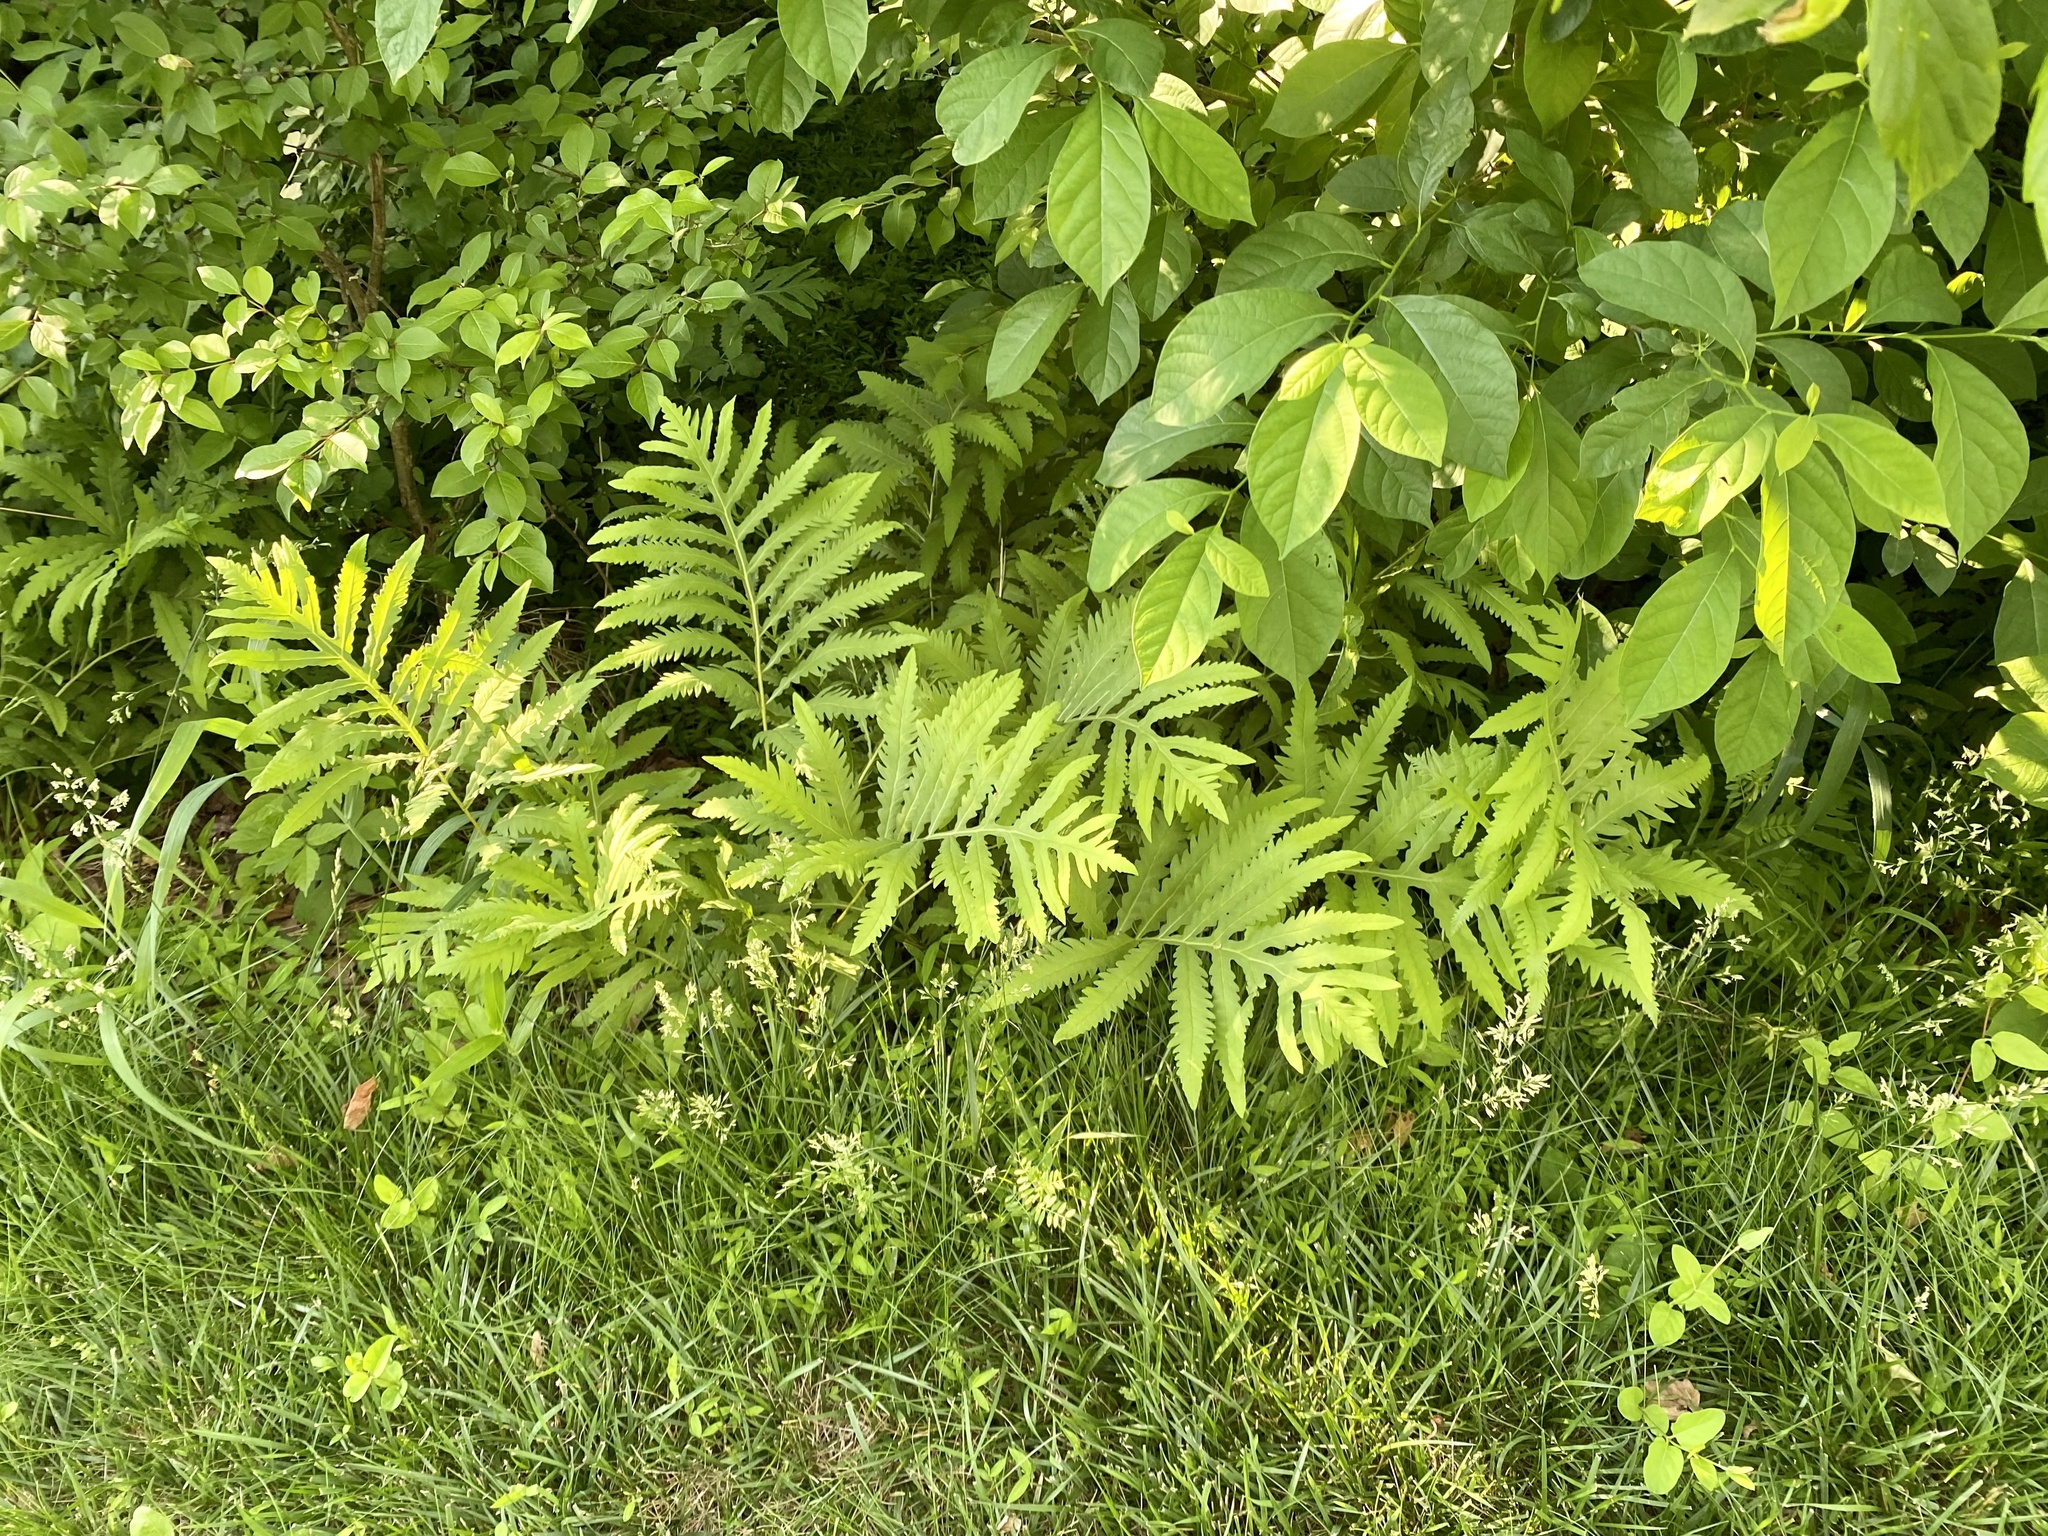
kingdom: Plantae
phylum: Tracheophyta
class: Polypodiopsida
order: Polypodiales
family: Onocleaceae
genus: Onoclea
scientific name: Onoclea sensibilis
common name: Sensitive fern
